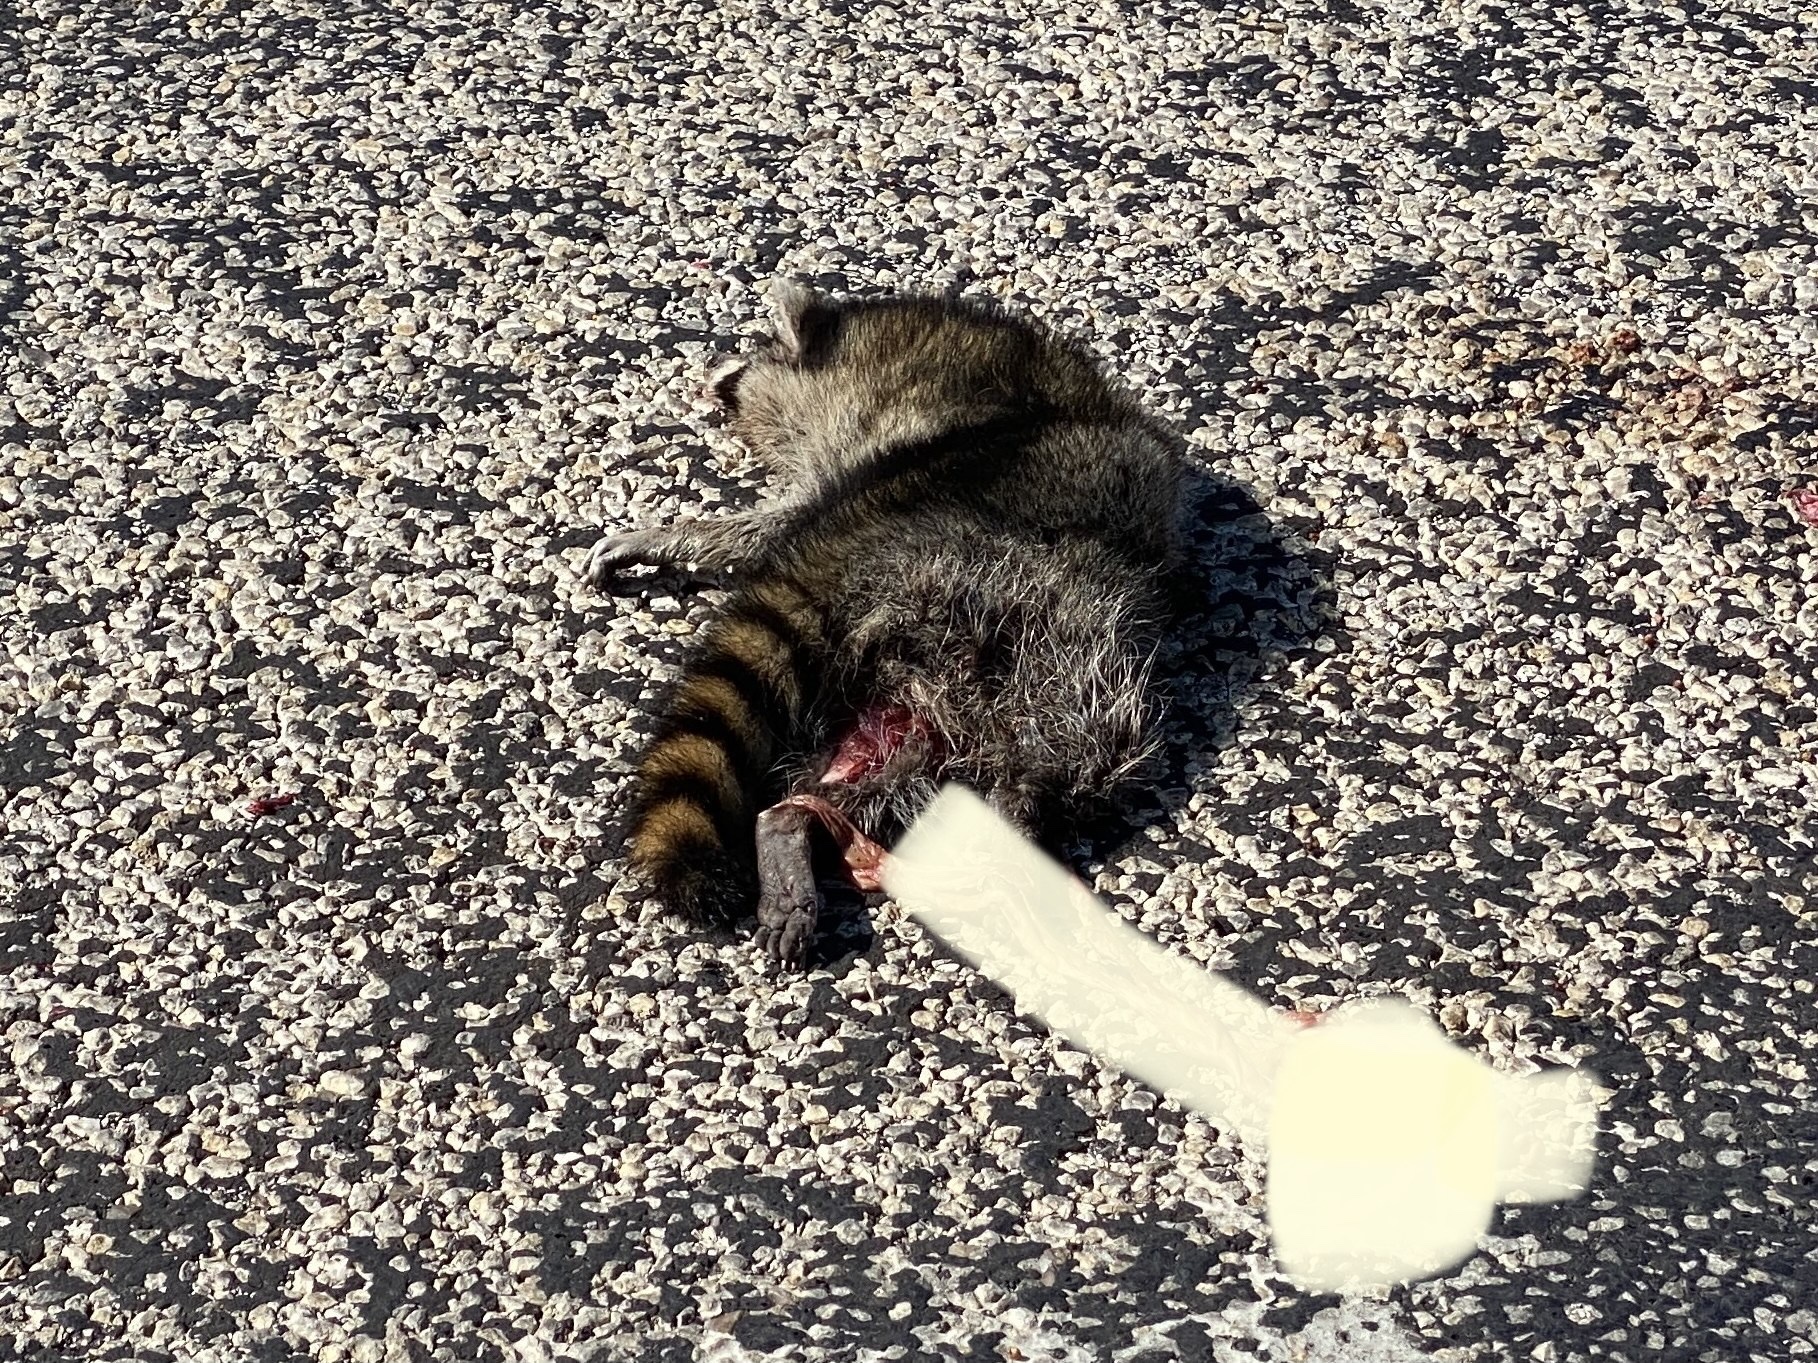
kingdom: Animalia
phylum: Chordata
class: Mammalia
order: Carnivora
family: Procyonidae
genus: Procyon
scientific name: Procyon lotor
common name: Raccoon
